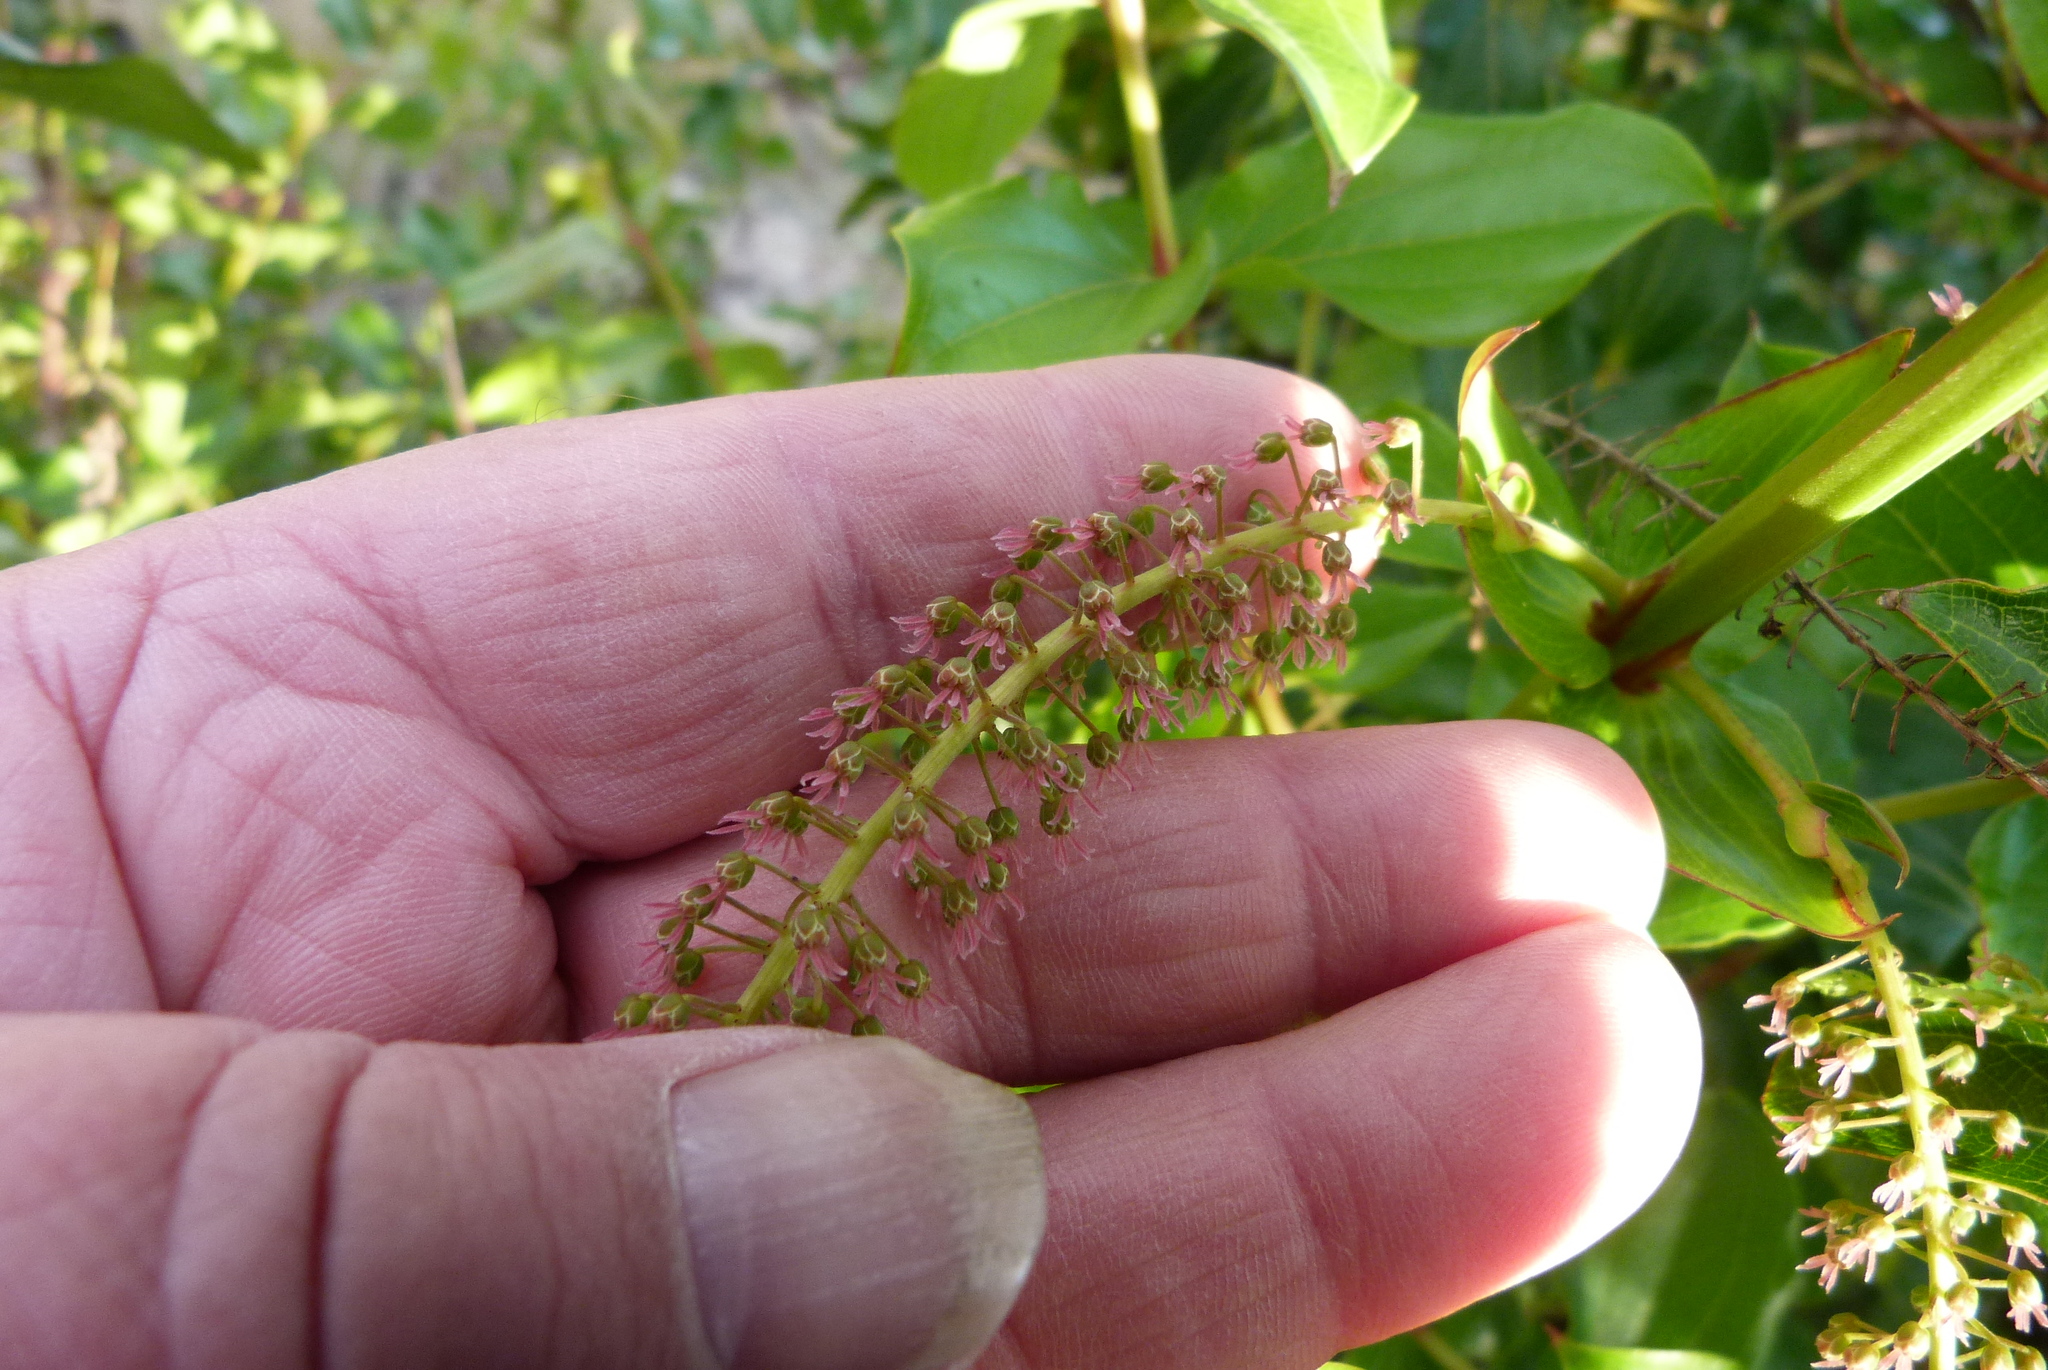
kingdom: Plantae
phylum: Tracheophyta
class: Magnoliopsida
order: Cucurbitales
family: Coriariaceae
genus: Coriaria
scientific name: Coriaria arborea
